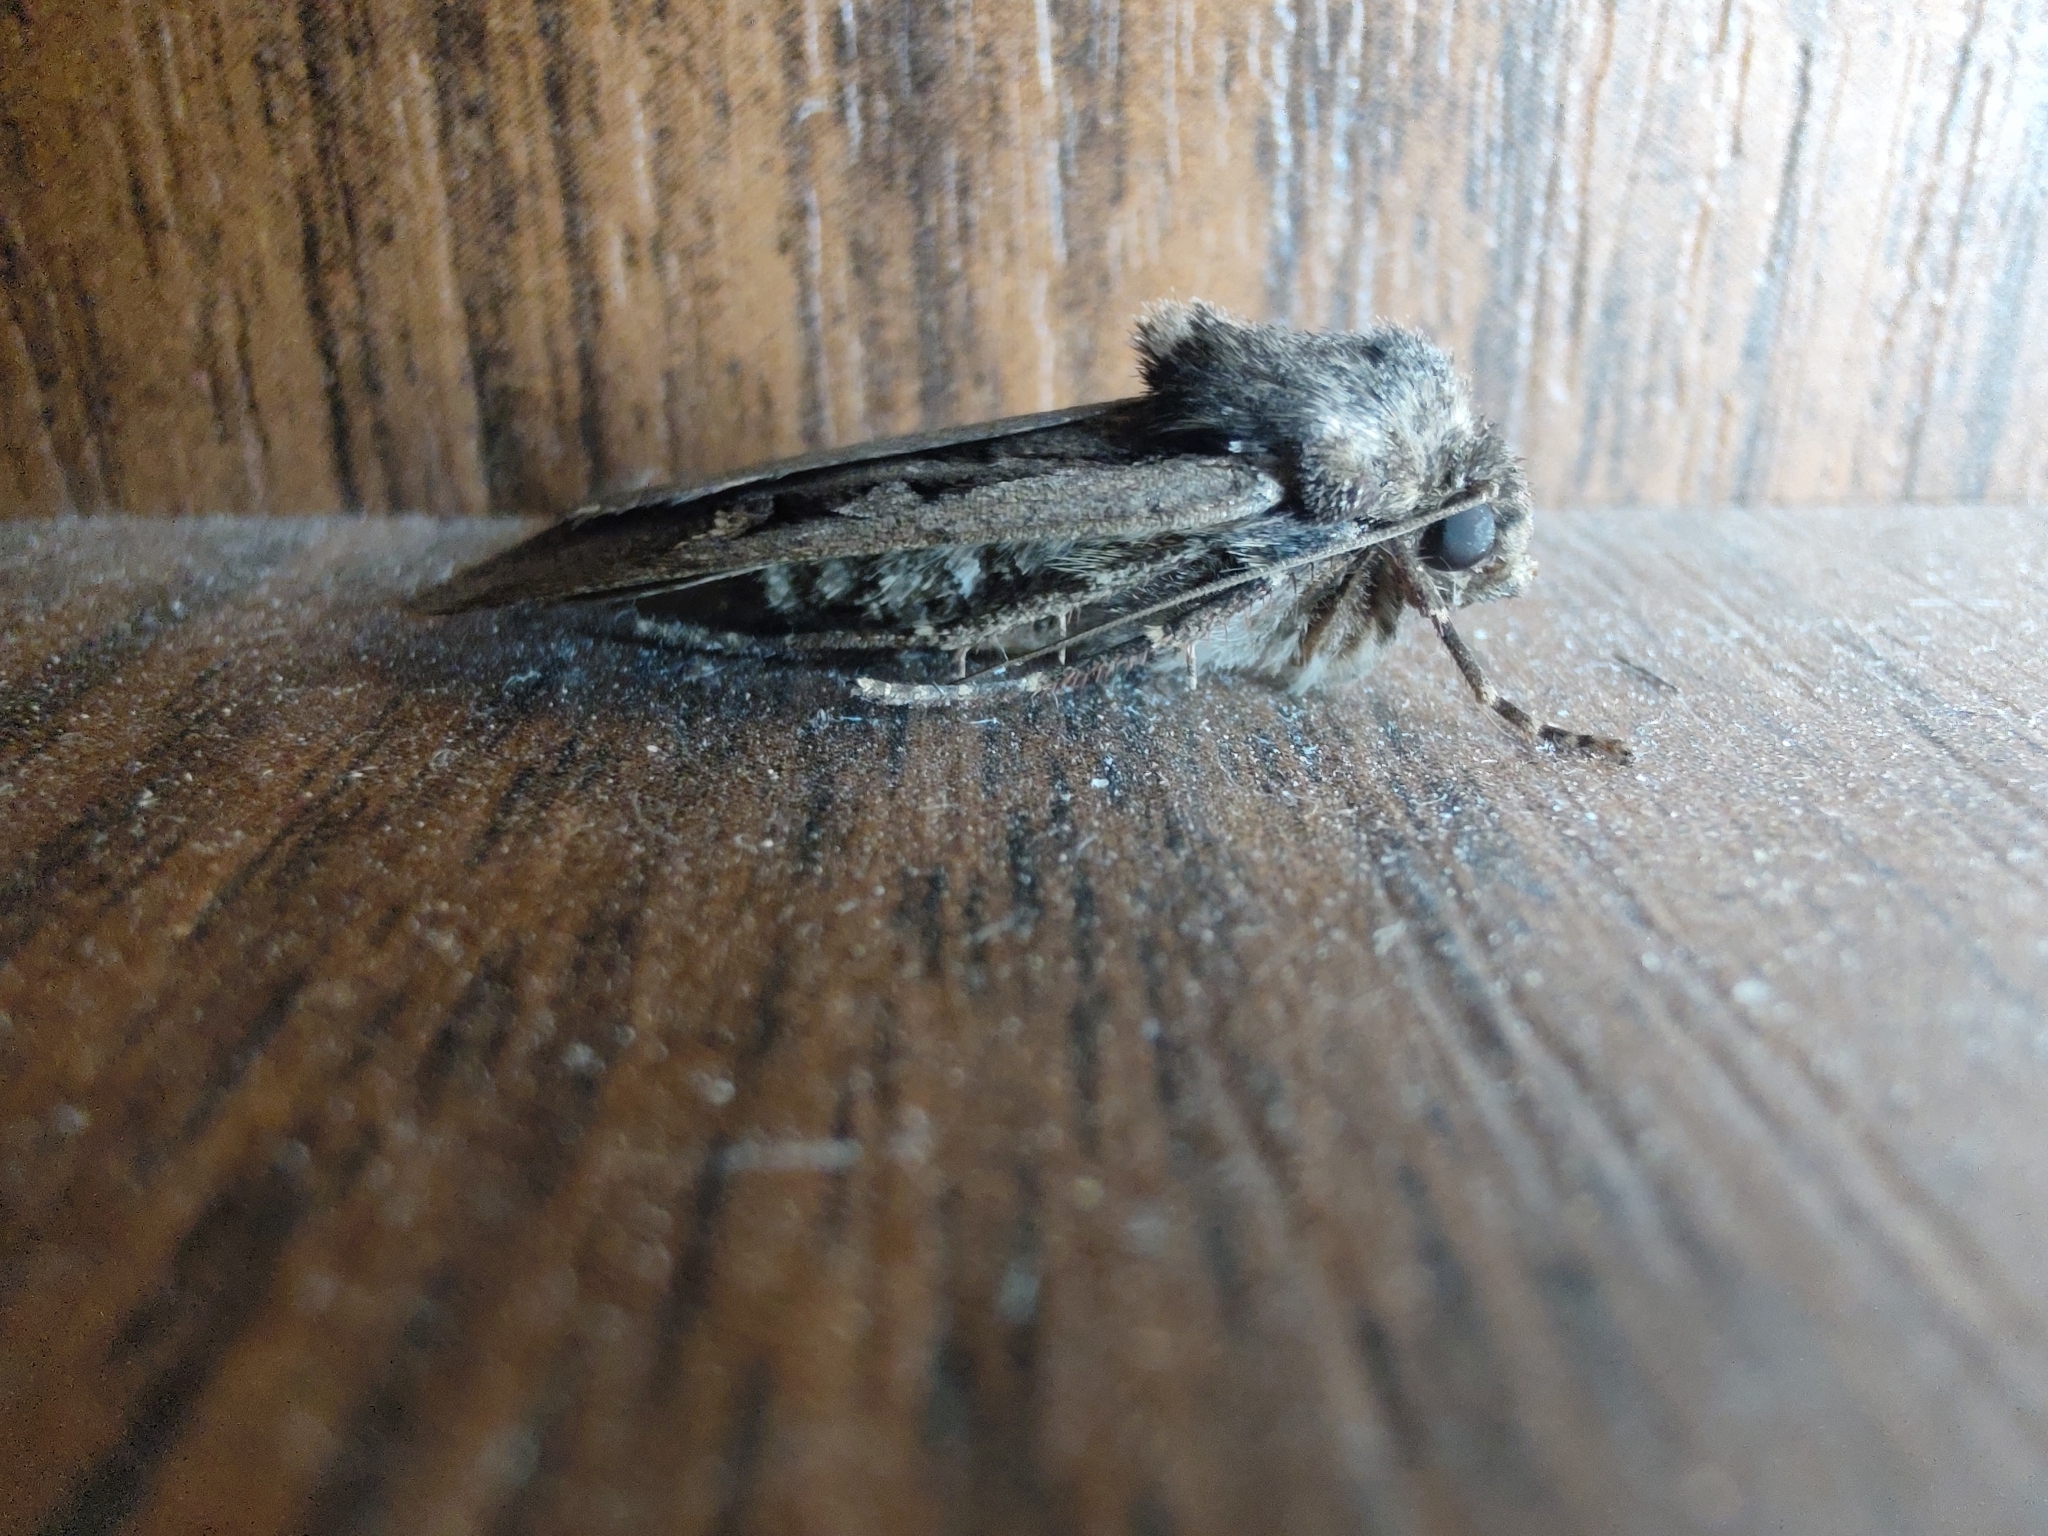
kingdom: Animalia
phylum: Arthropoda
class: Insecta
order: Lepidoptera
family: Noctuidae
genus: Euxoa
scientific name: Euxoa obelisca
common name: Square-spot dart
